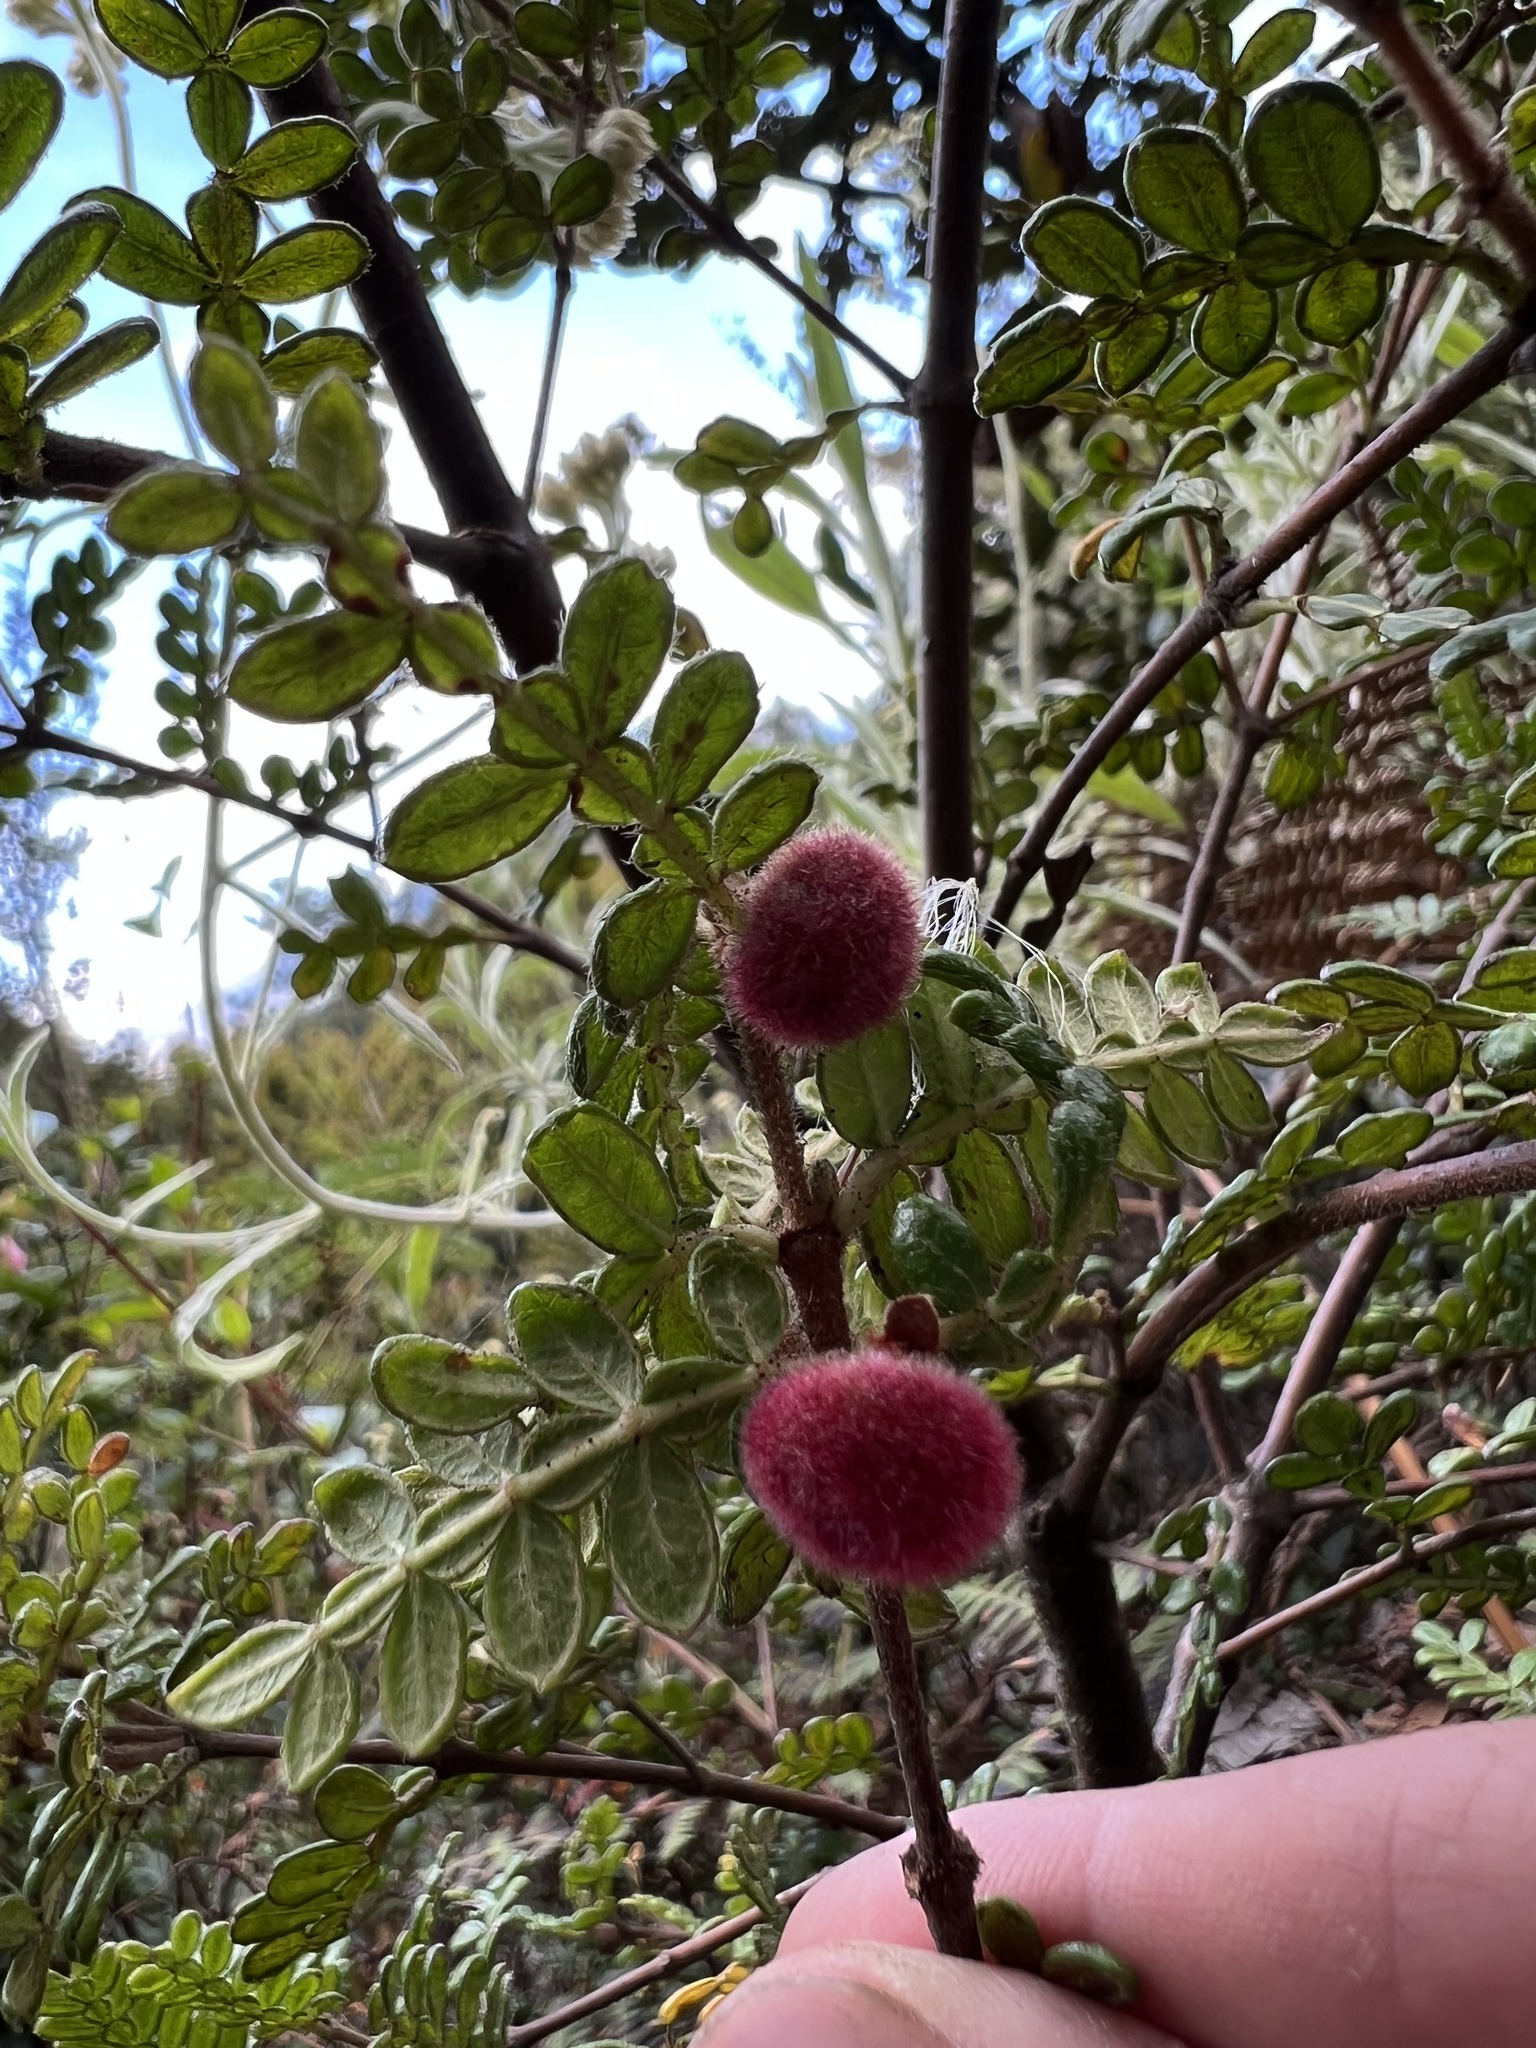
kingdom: Plantae
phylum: Tracheophyta
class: Magnoliopsida
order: Oxalidales
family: Cunoniaceae
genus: Weinmannia
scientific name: Weinmannia tomentosa
